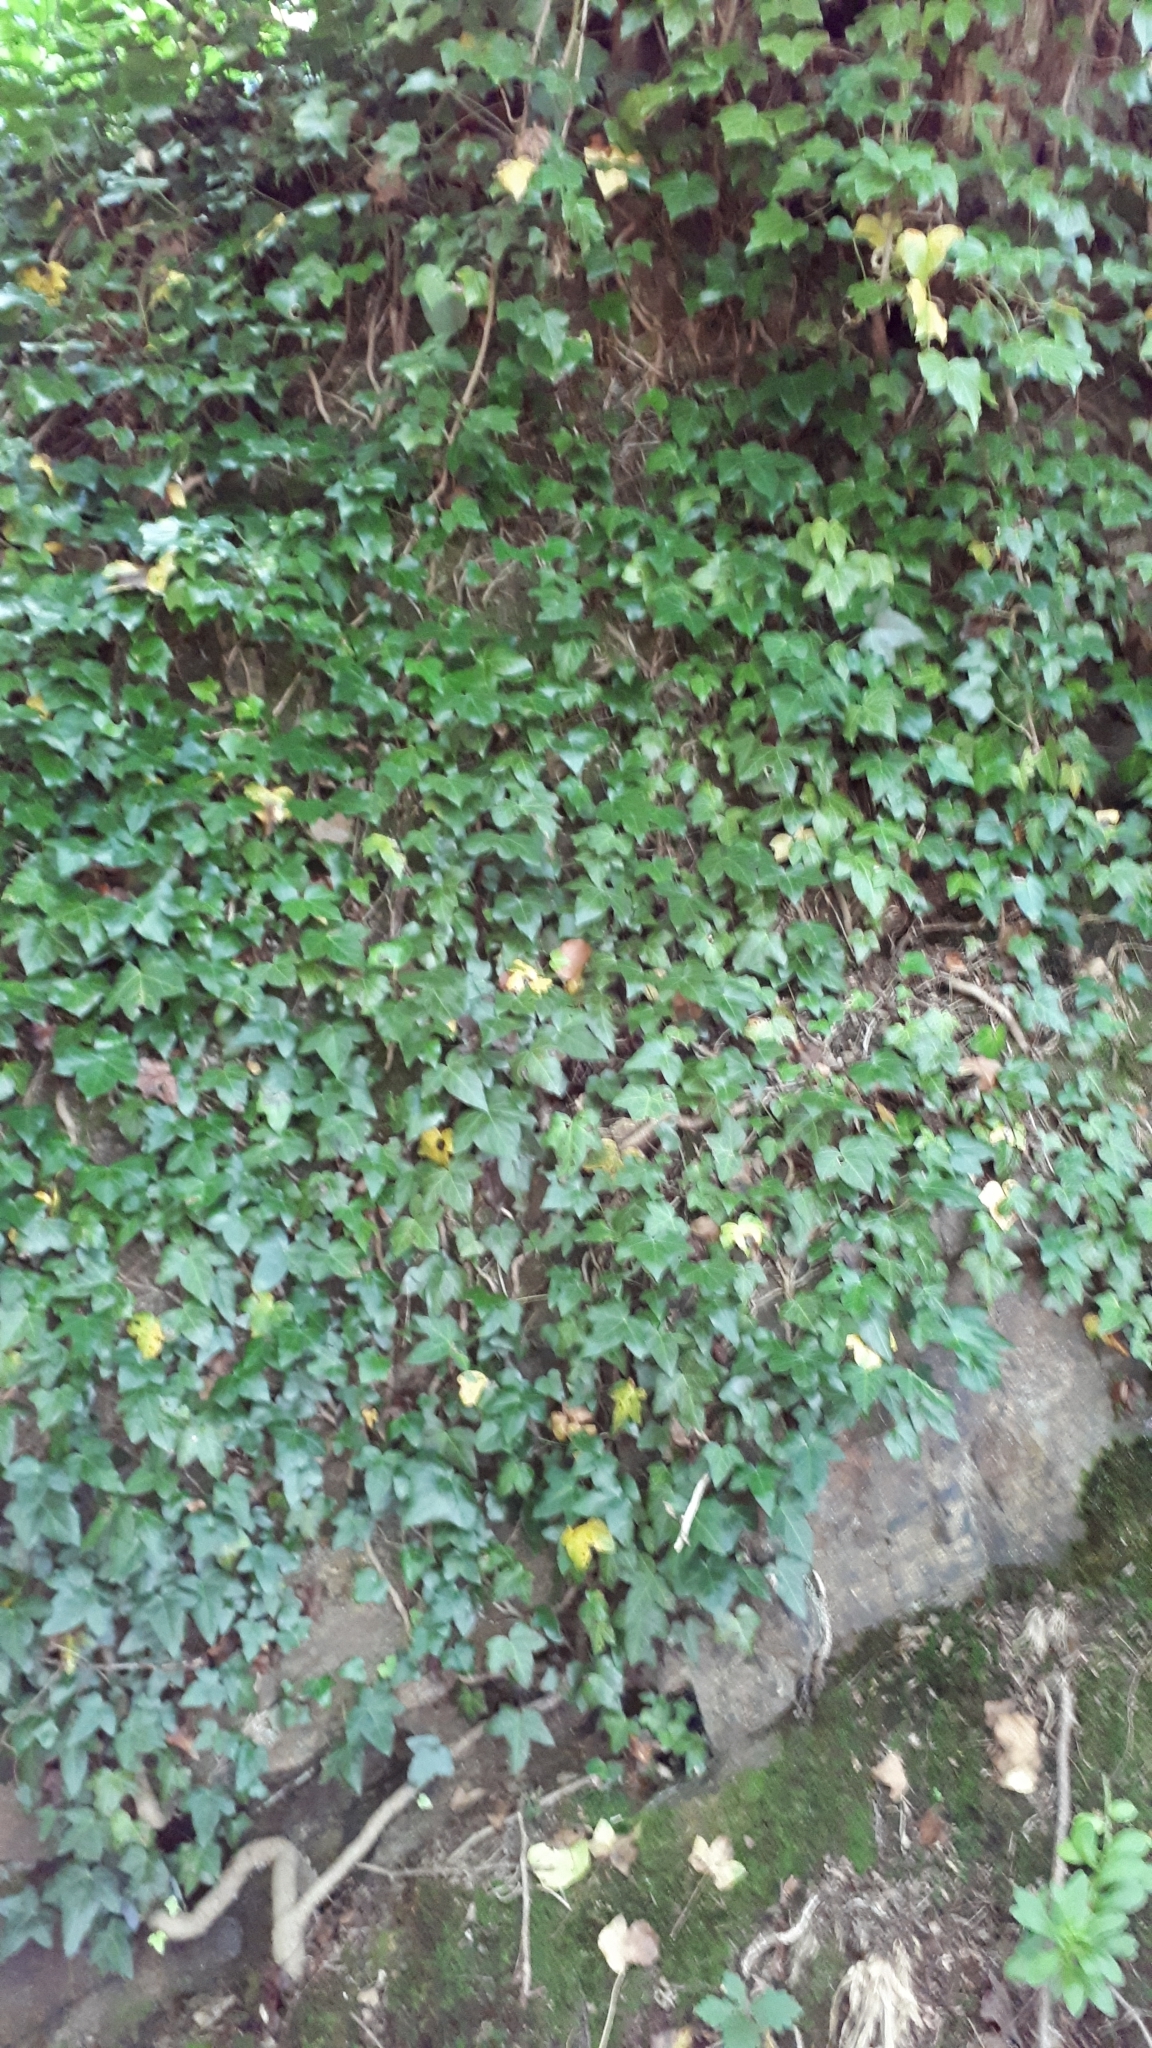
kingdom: Plantae
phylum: Tracheophyta
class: Magnoliopsida
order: Apiales
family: Araliaceae
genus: Hedera
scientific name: Hedera helix
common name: Ivy
